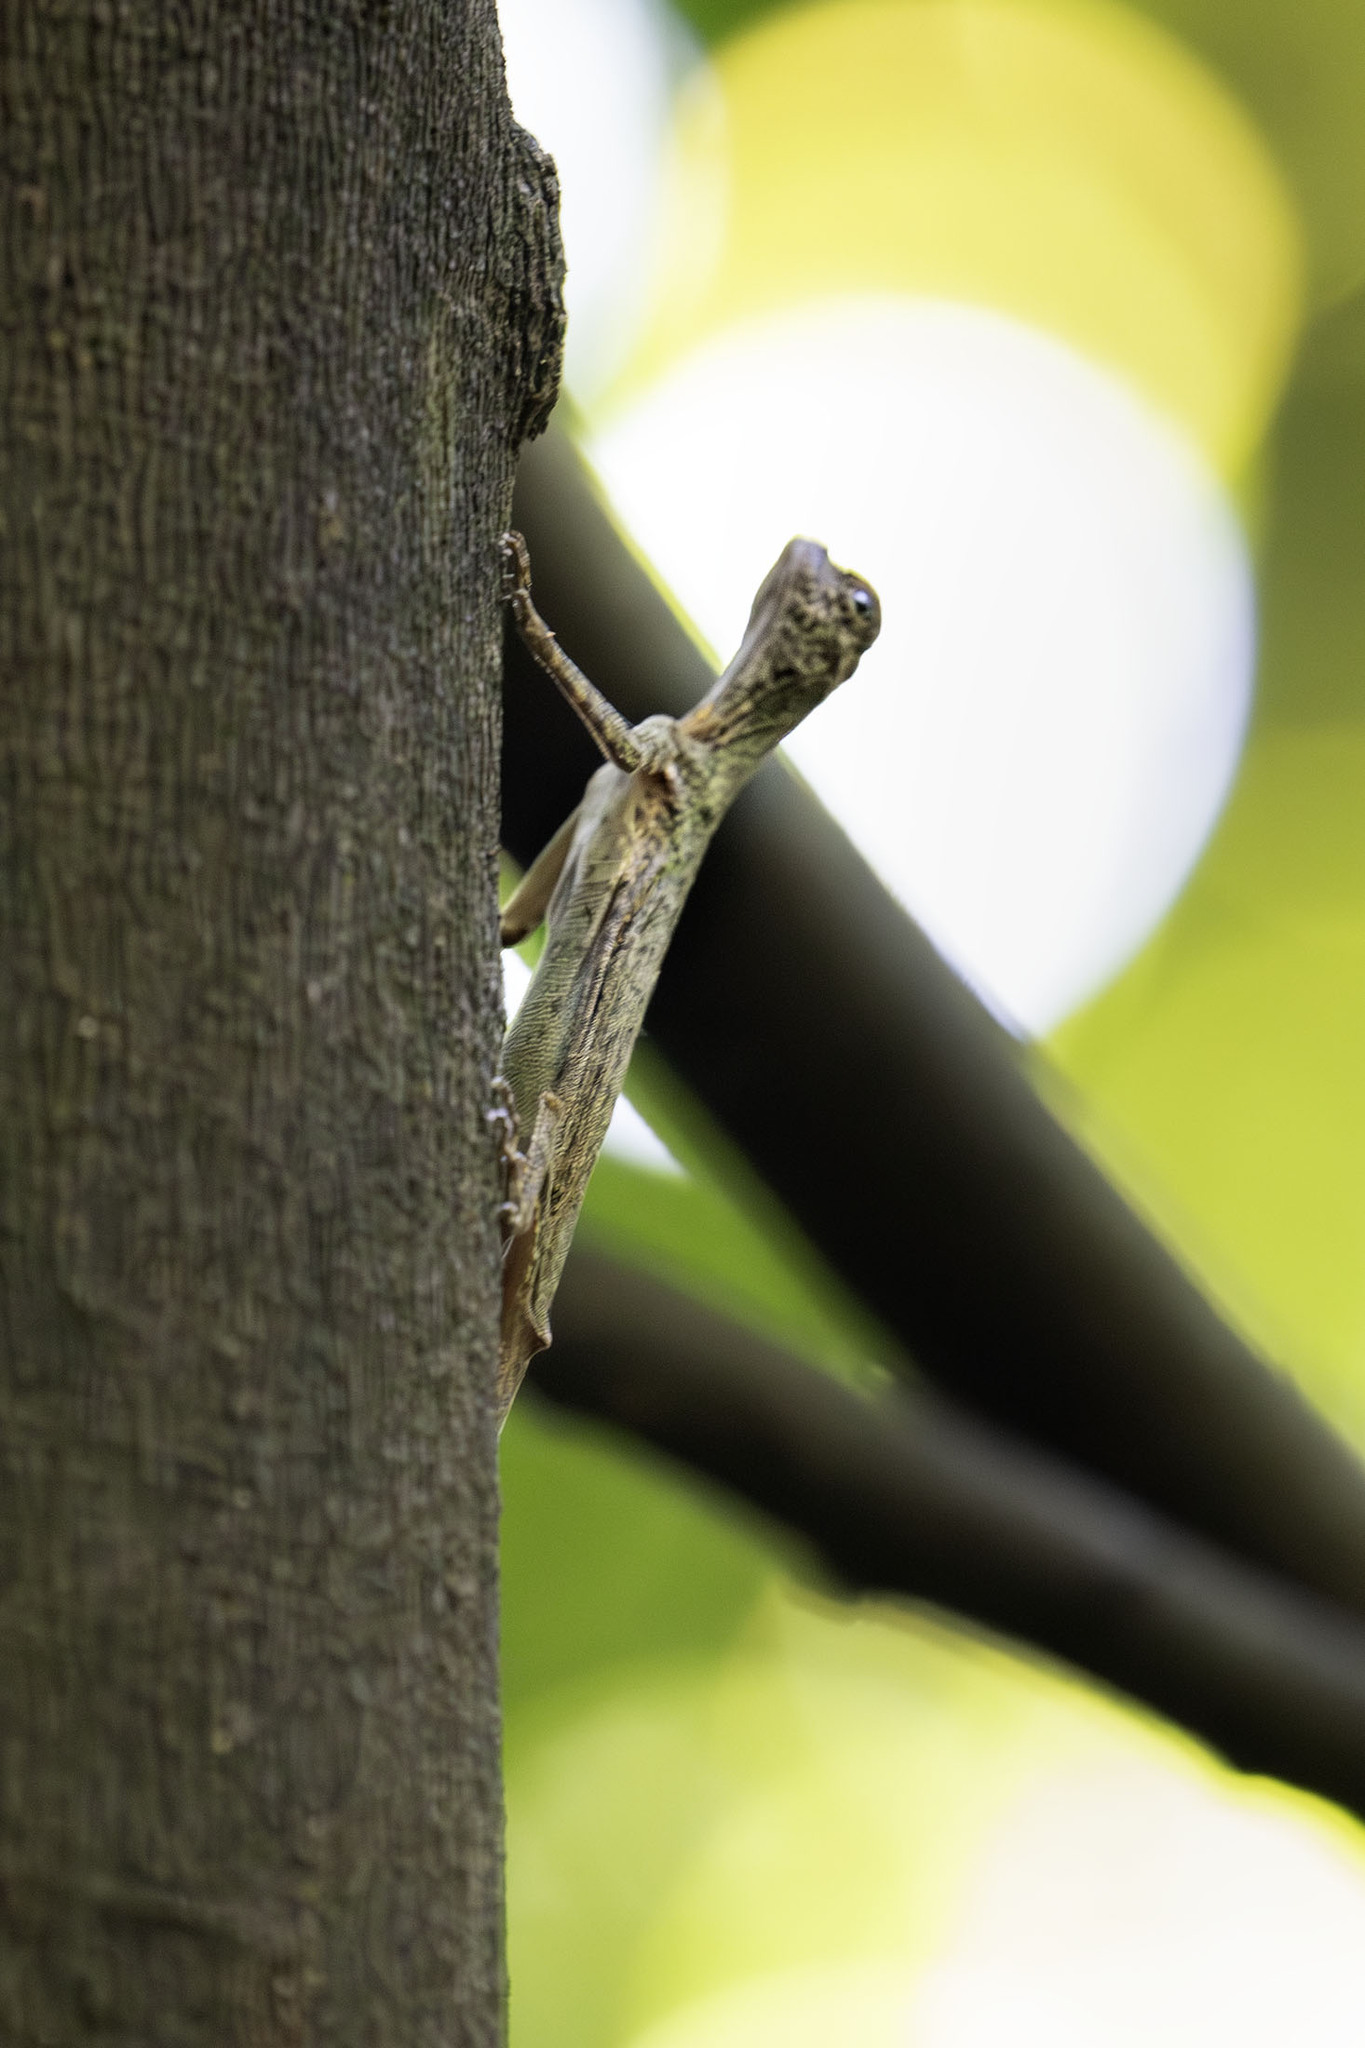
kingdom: Animalia
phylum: Chordata
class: Squamata
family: Agamidae
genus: Draco
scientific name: Draco melanopogon
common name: Black-barbed flying dragon
